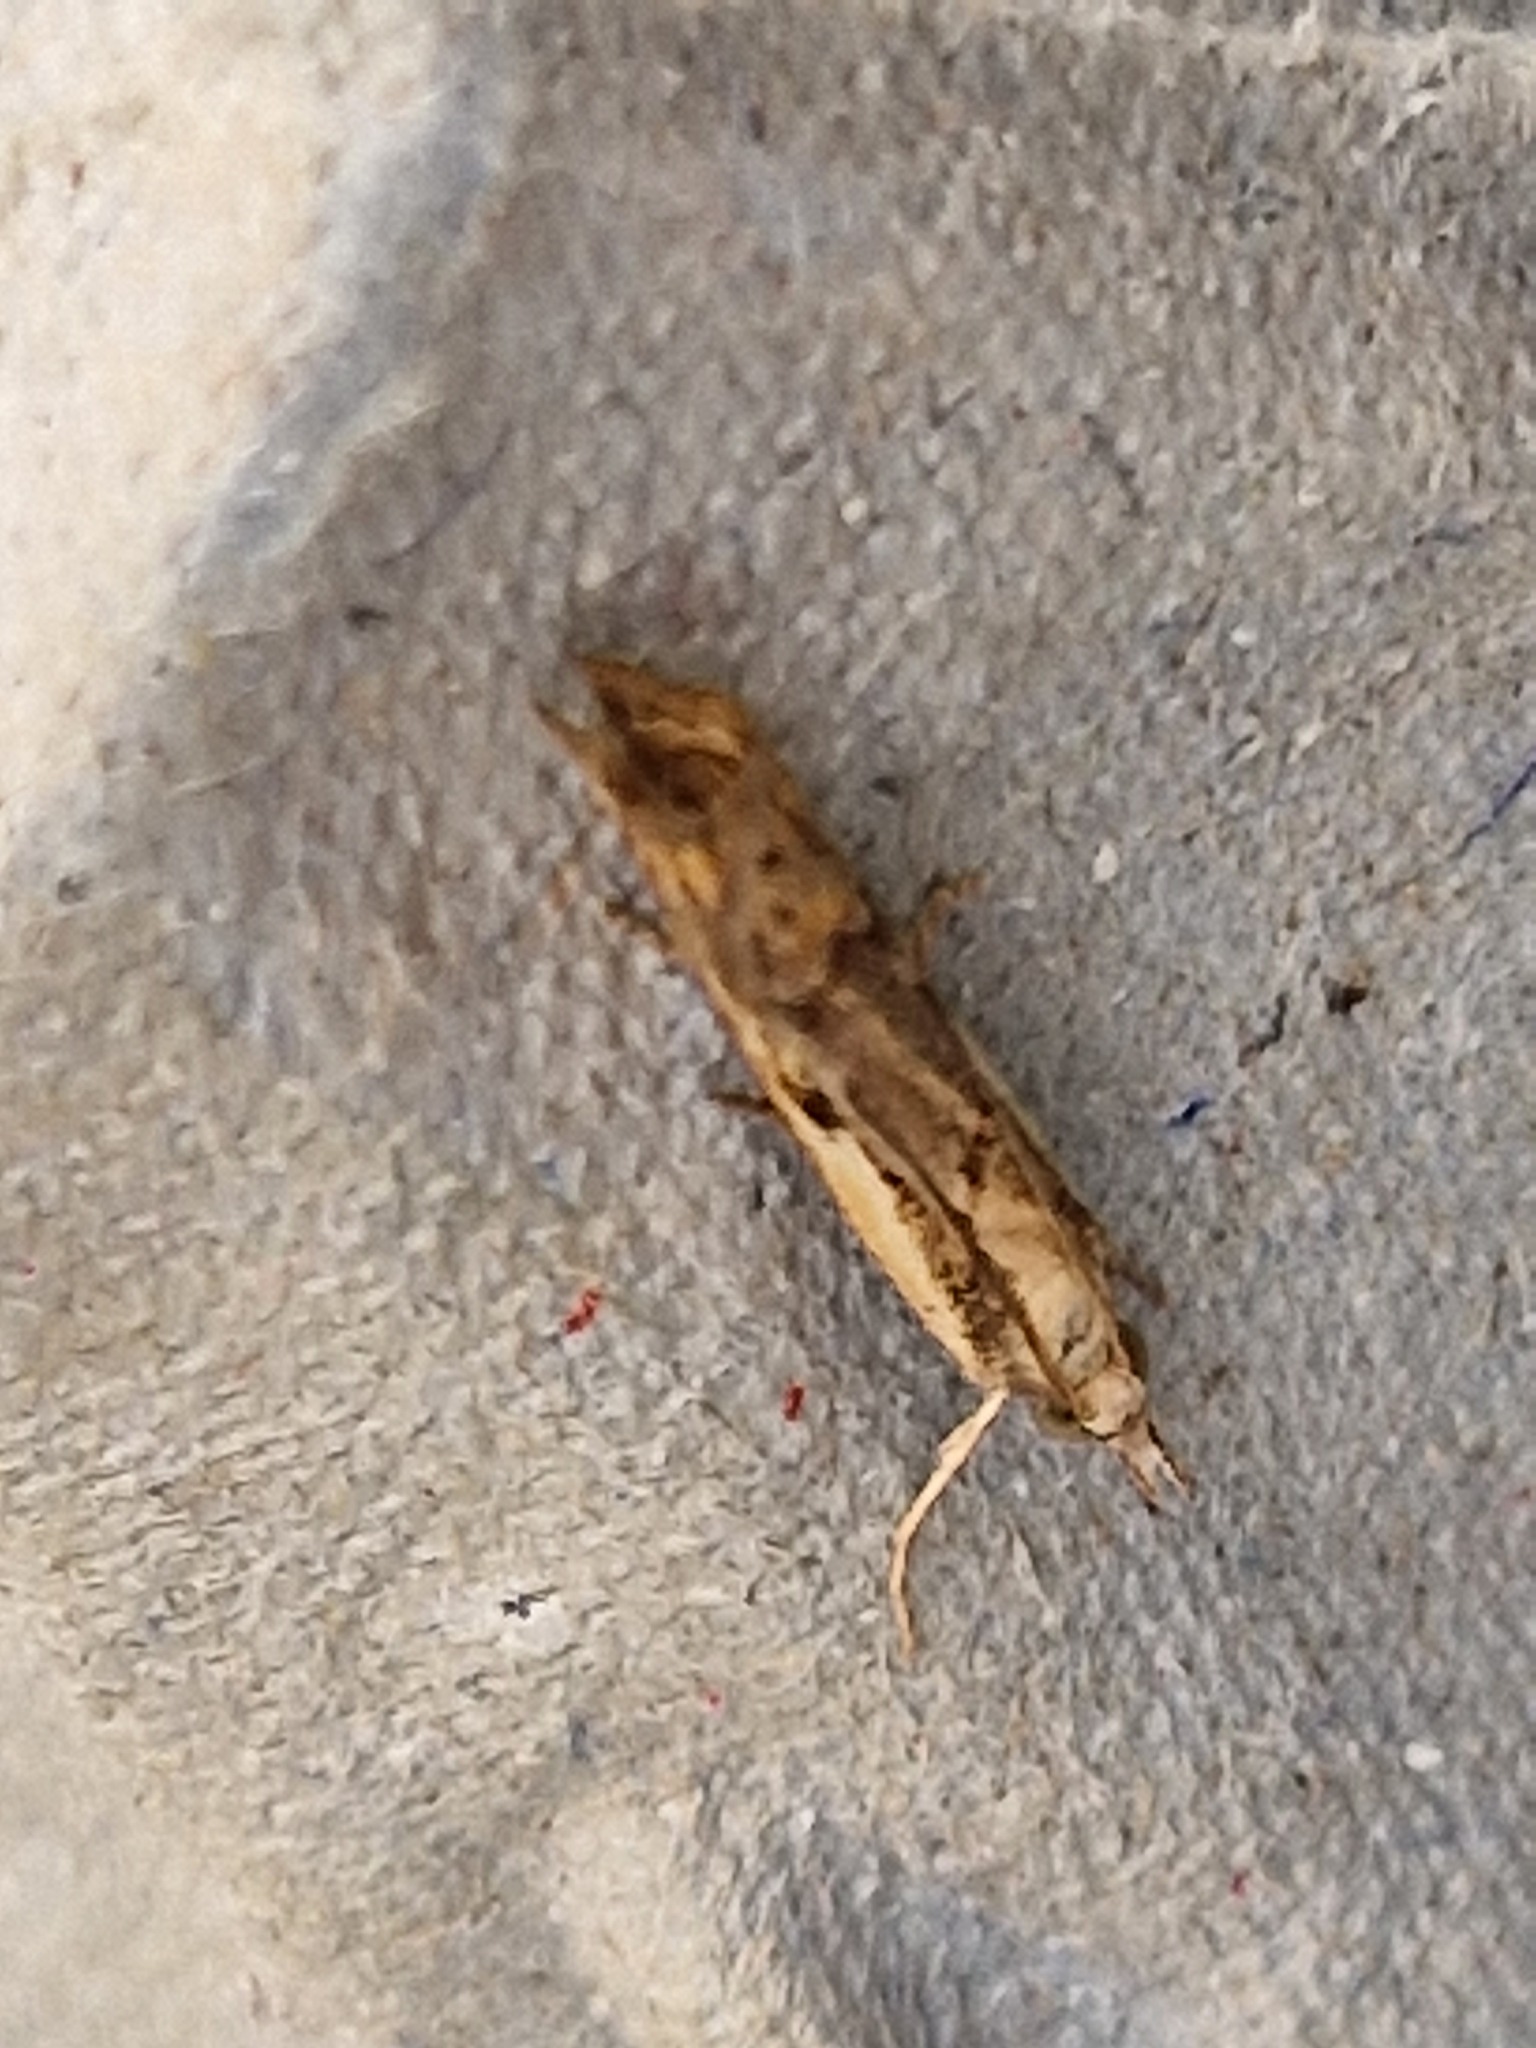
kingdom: Animalia
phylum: Arthropoda
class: Insecta
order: Lepidoptera
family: Crambidae
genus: Agriphila
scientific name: Agriphila geniculea
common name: Elbow-stripe grass-veneer
